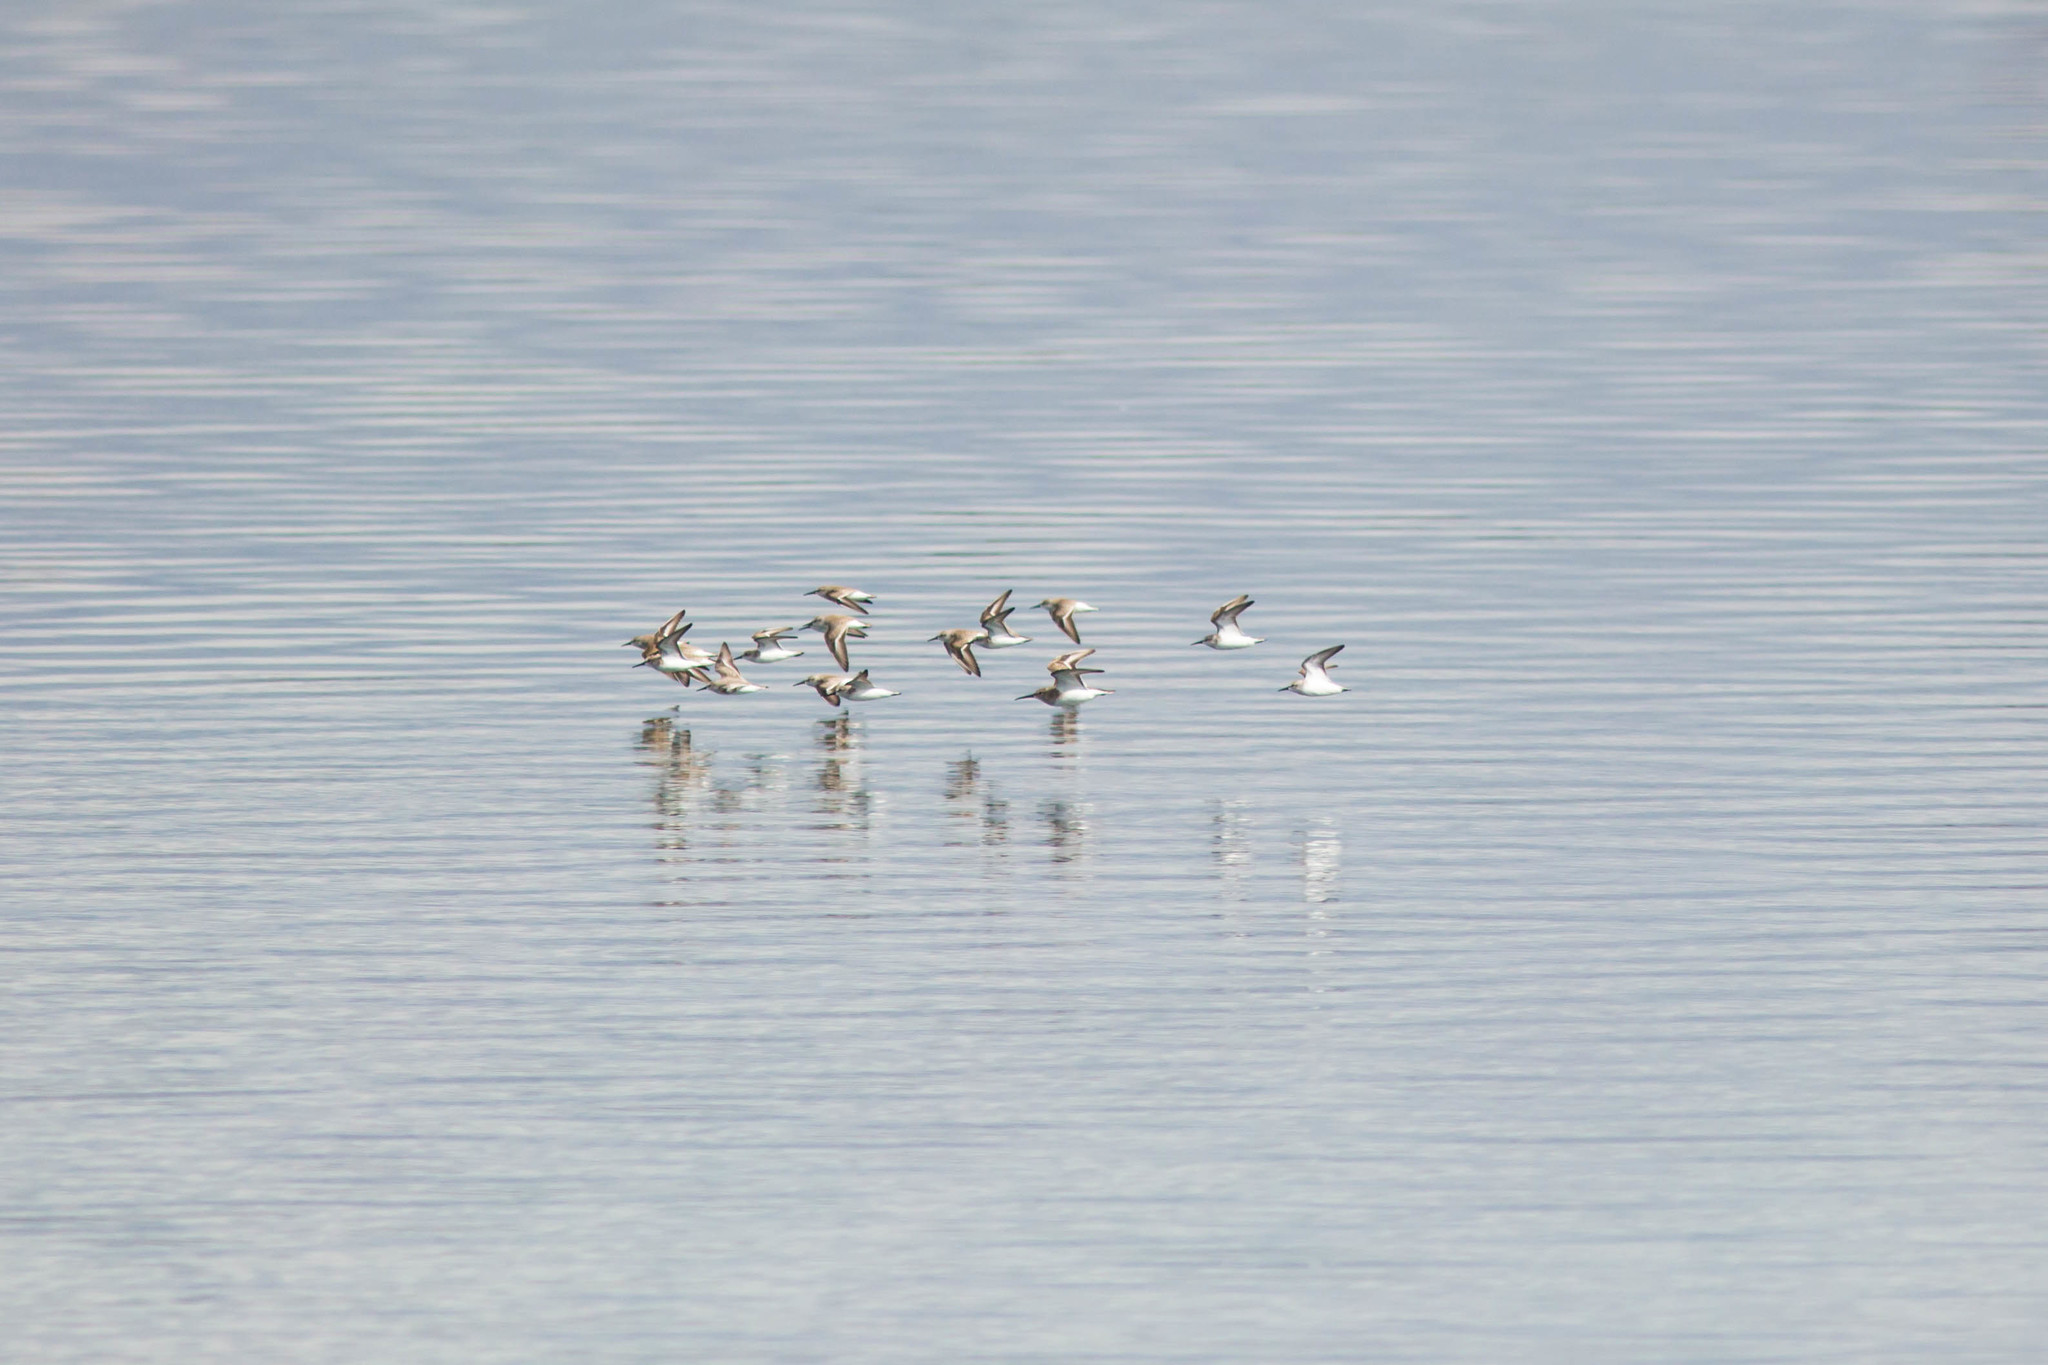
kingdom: Animalia
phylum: Chordata
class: Aves
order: Charadriiformes
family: Scolopacidae
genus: Calidris
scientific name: Calidris alpina
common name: Dunlin
